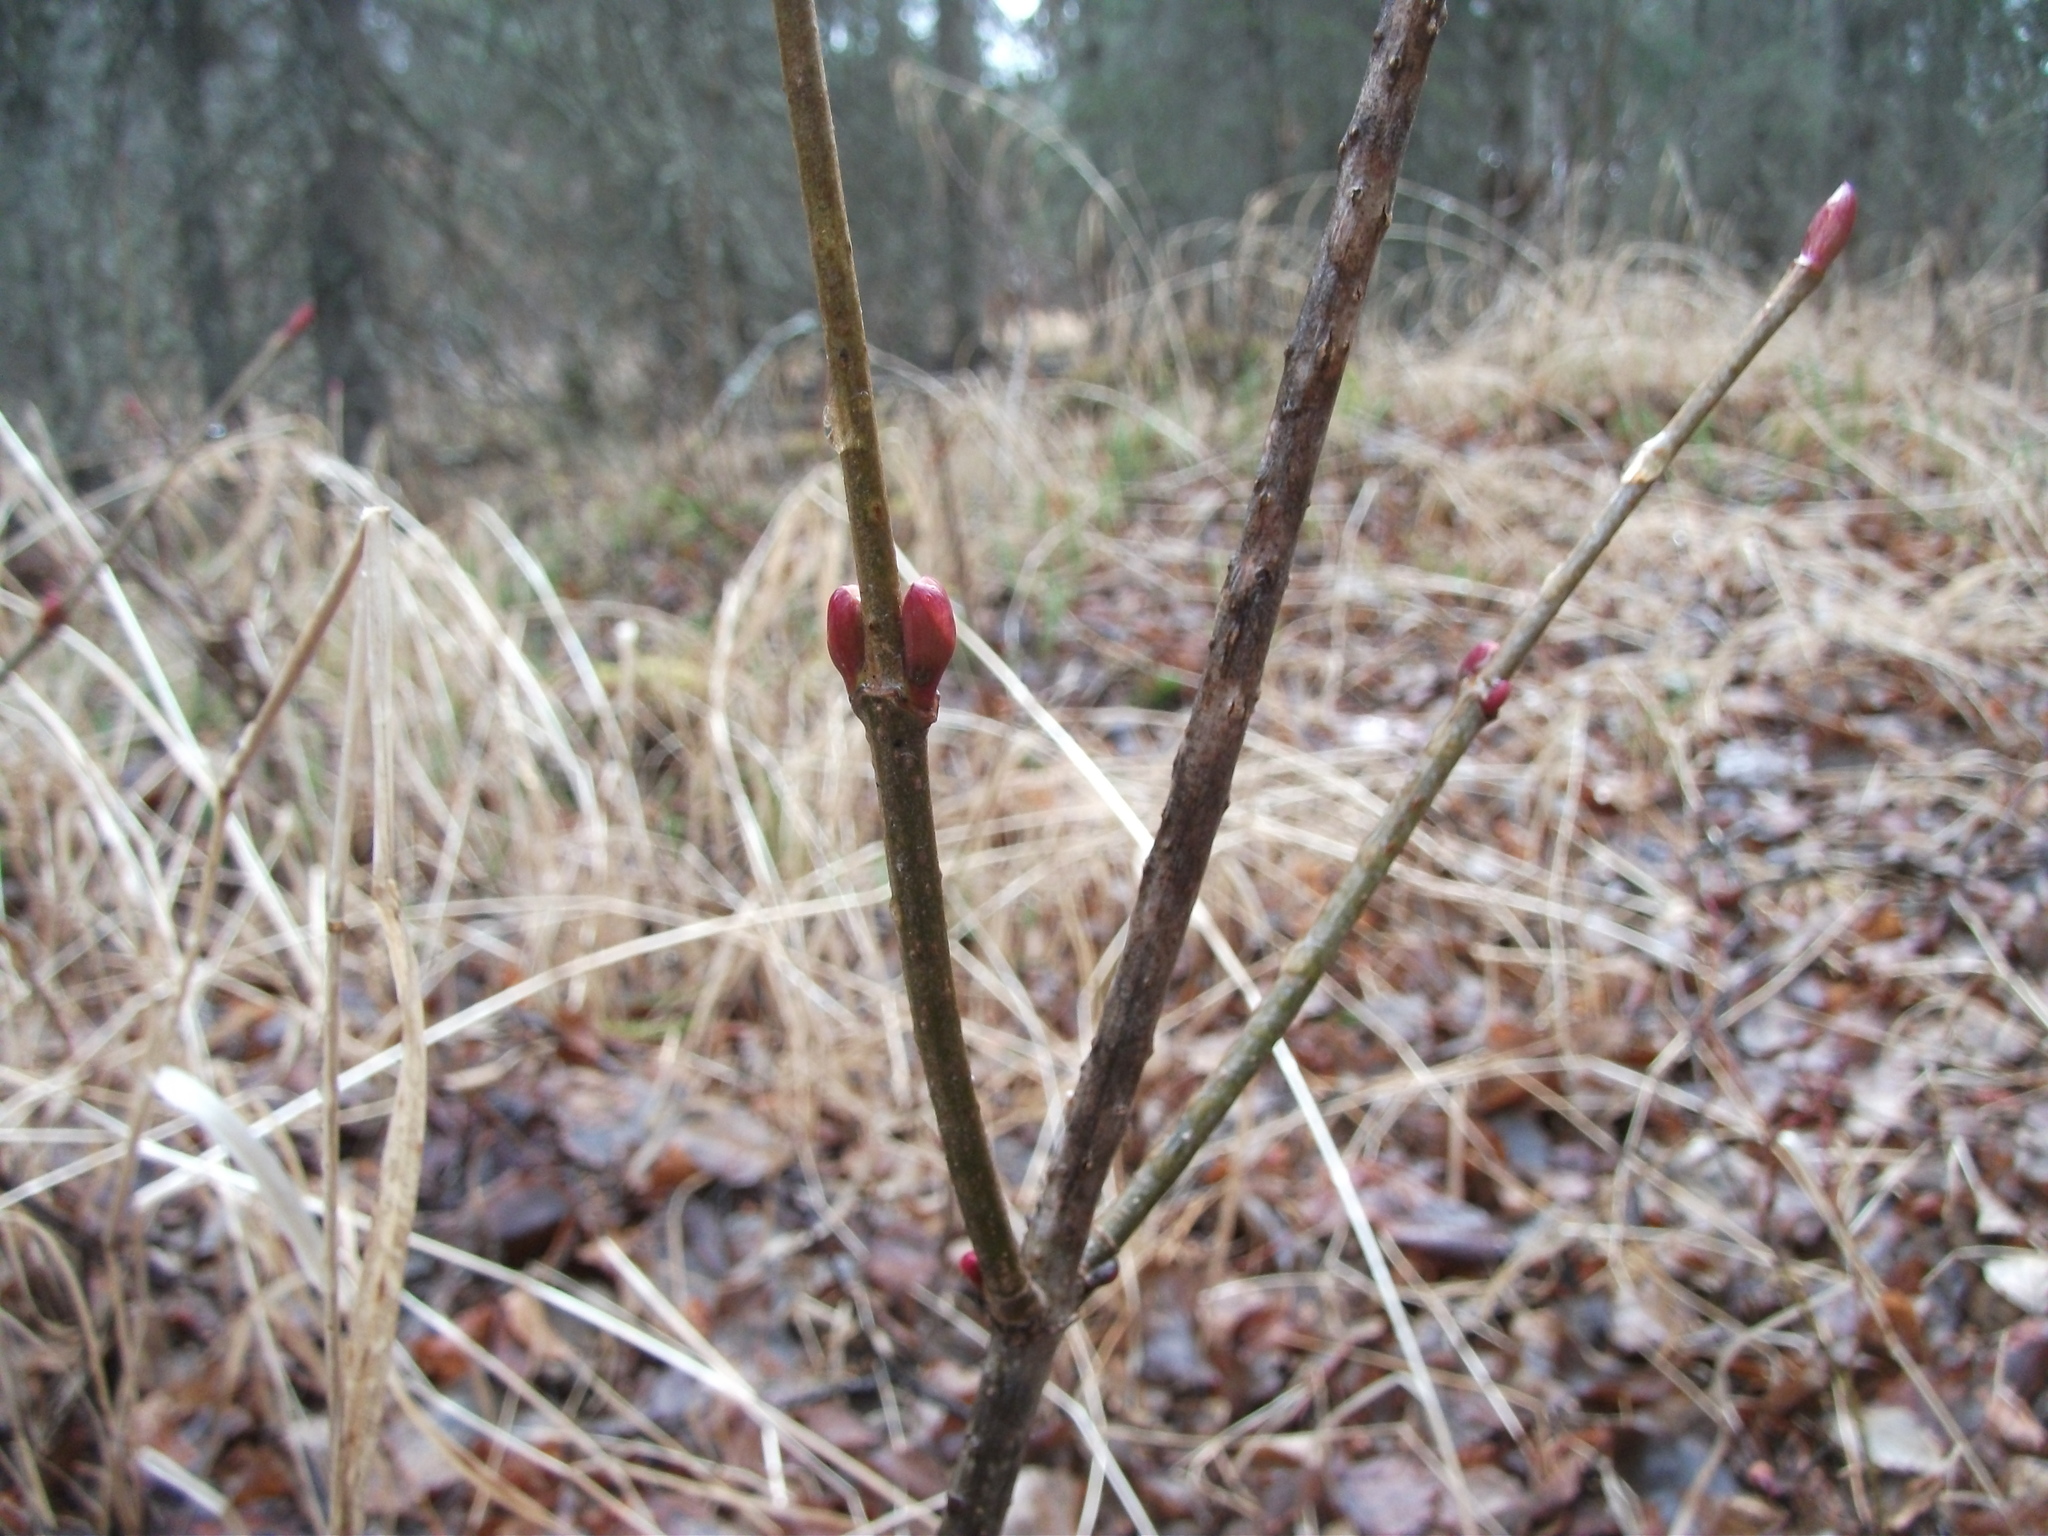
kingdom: Plantae
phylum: Tracheophyta
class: Magnoliopsida
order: Dipsacales
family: Viburnaceae
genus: Viburnum
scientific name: Viburnum edule
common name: Mooseberry
